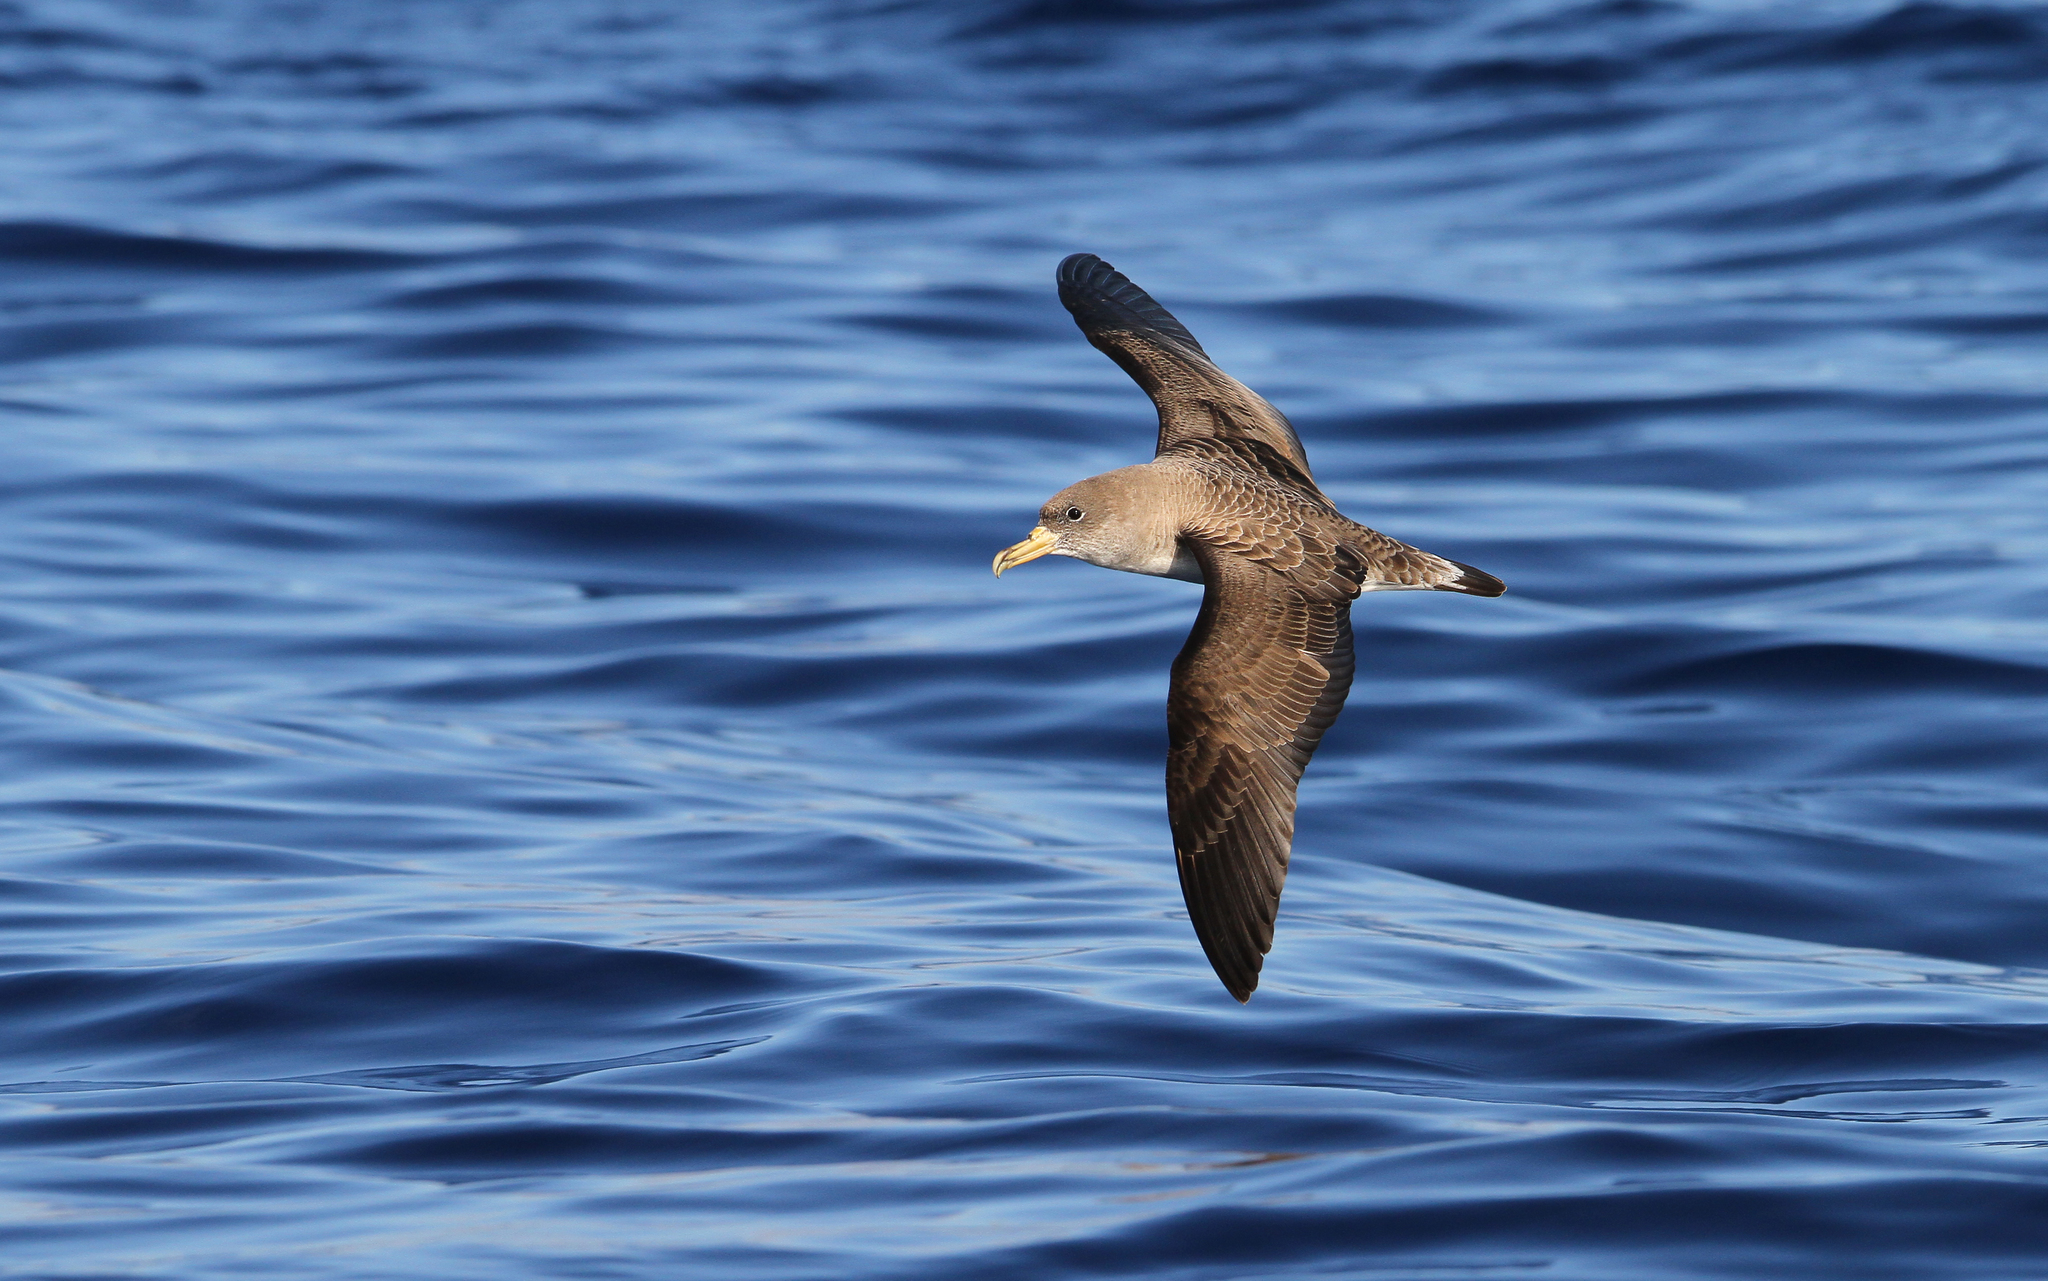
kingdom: Animalia
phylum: Chordata
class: Aves
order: Procellariiformes
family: Procellariidae
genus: Calonectris
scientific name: Calonectris diomedea
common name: Cory's shearwater
